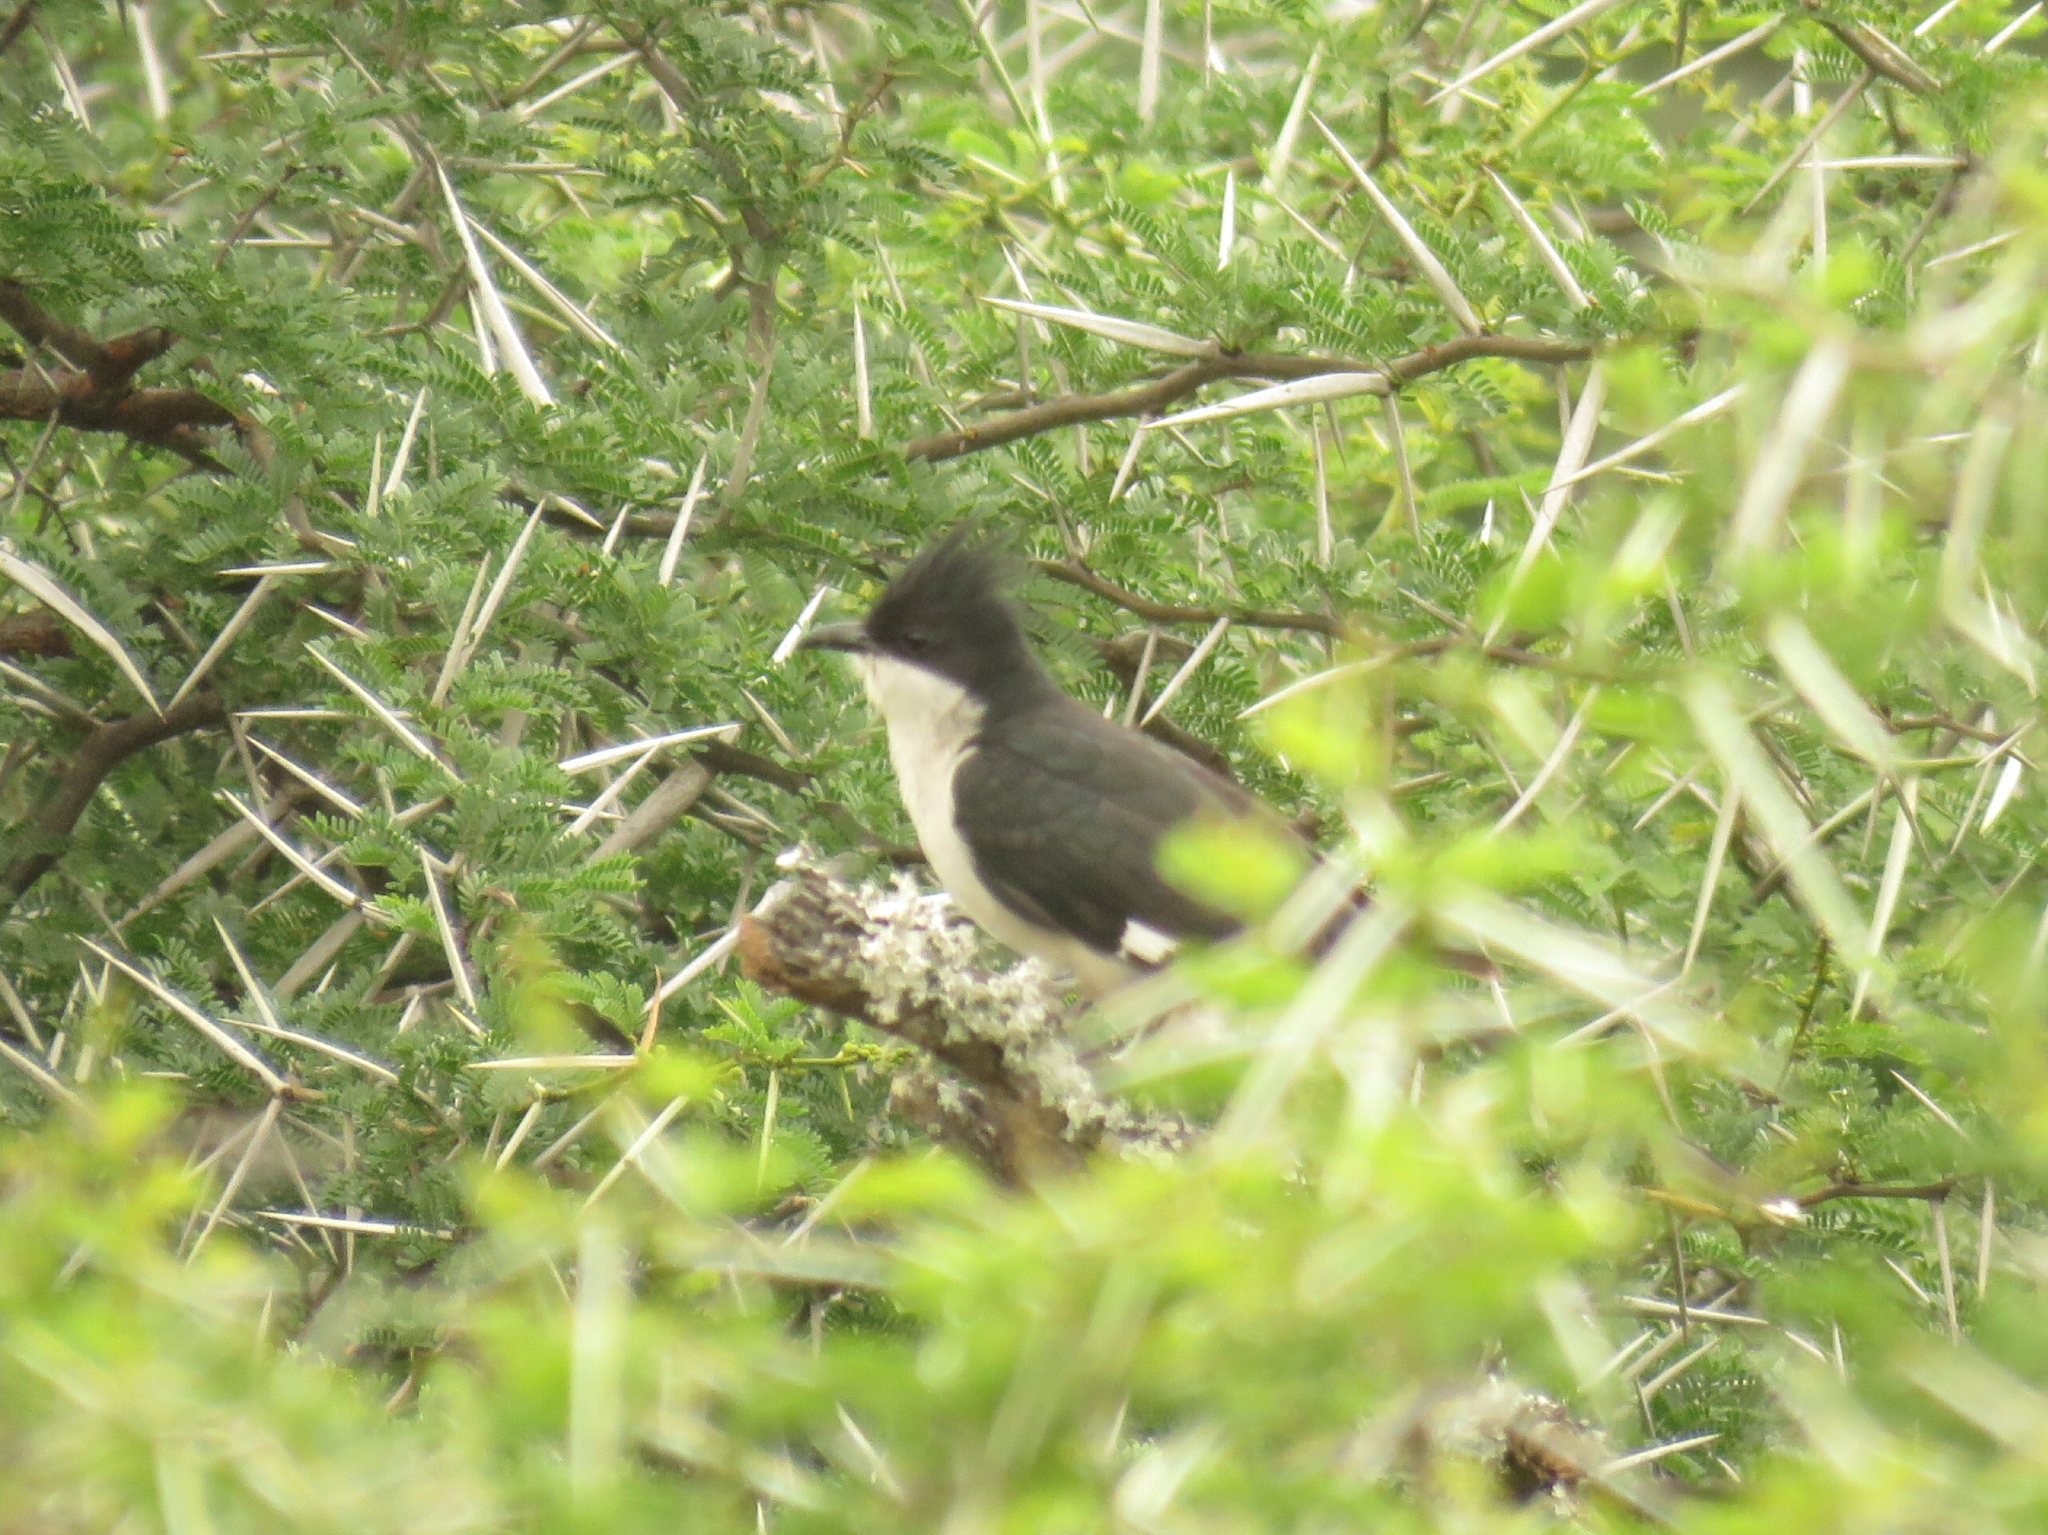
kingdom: Animalia
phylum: Chordata
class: Aves
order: Cuculiformes
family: Cuculidae
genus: Clamator
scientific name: Clamator jacobinus
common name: Jacobin cuckoo
